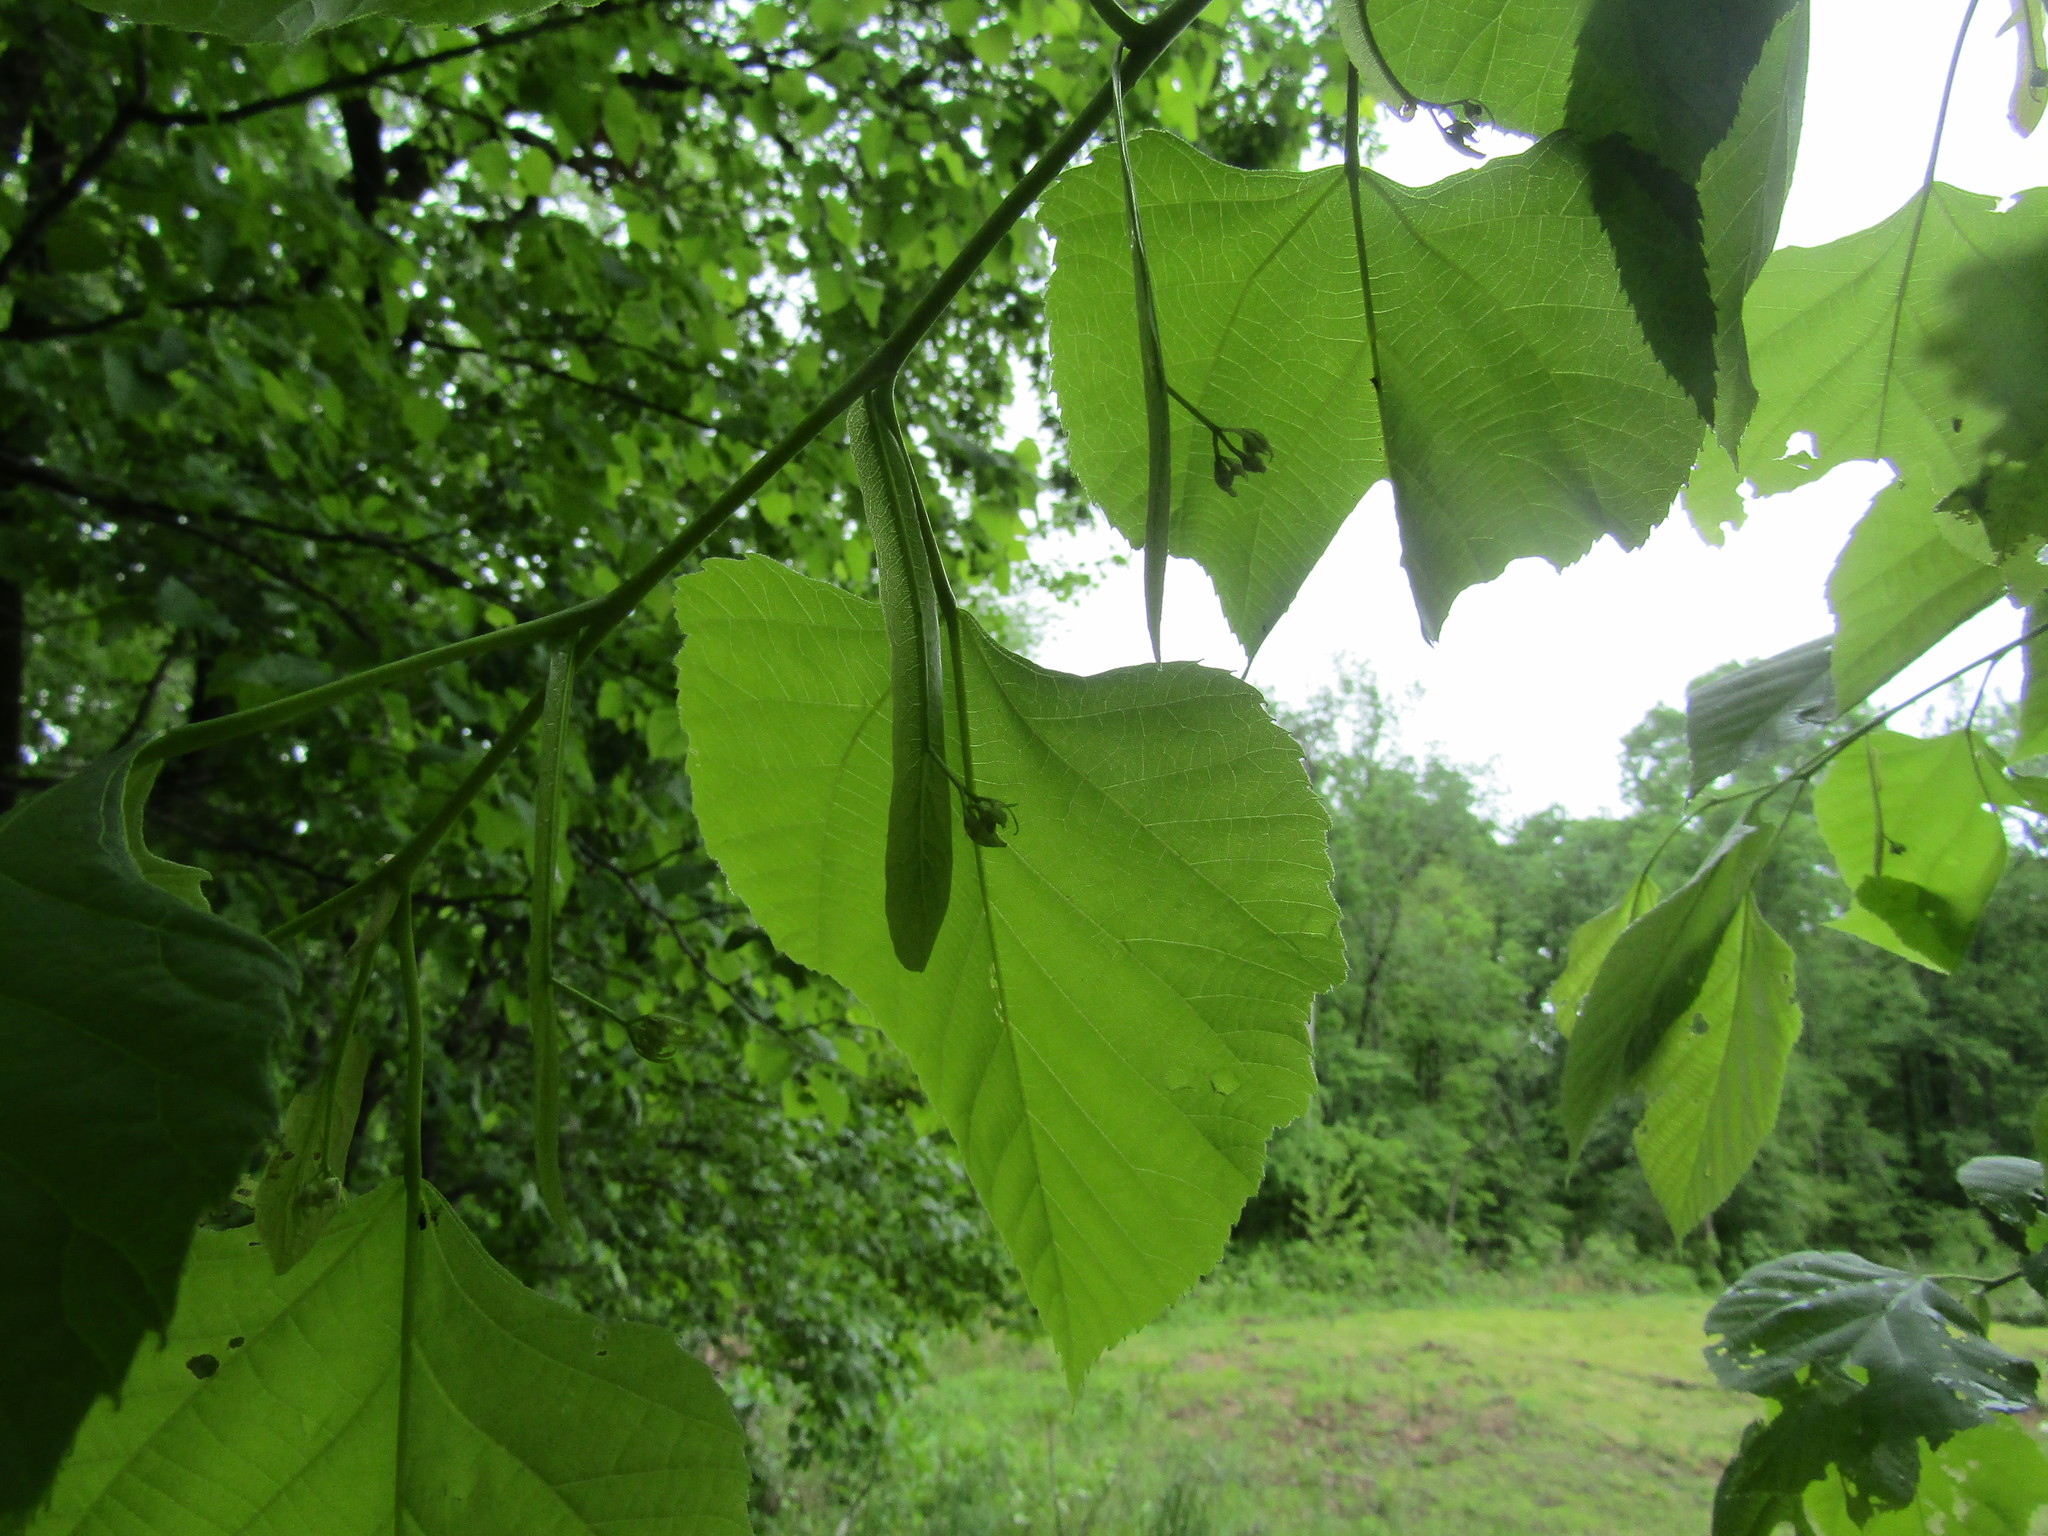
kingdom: Plantae
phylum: Tracheophyta
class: Magnoliopsida
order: Malvales
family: Malvaceae
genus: Tilia
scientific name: Tilia americana
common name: Basswood
